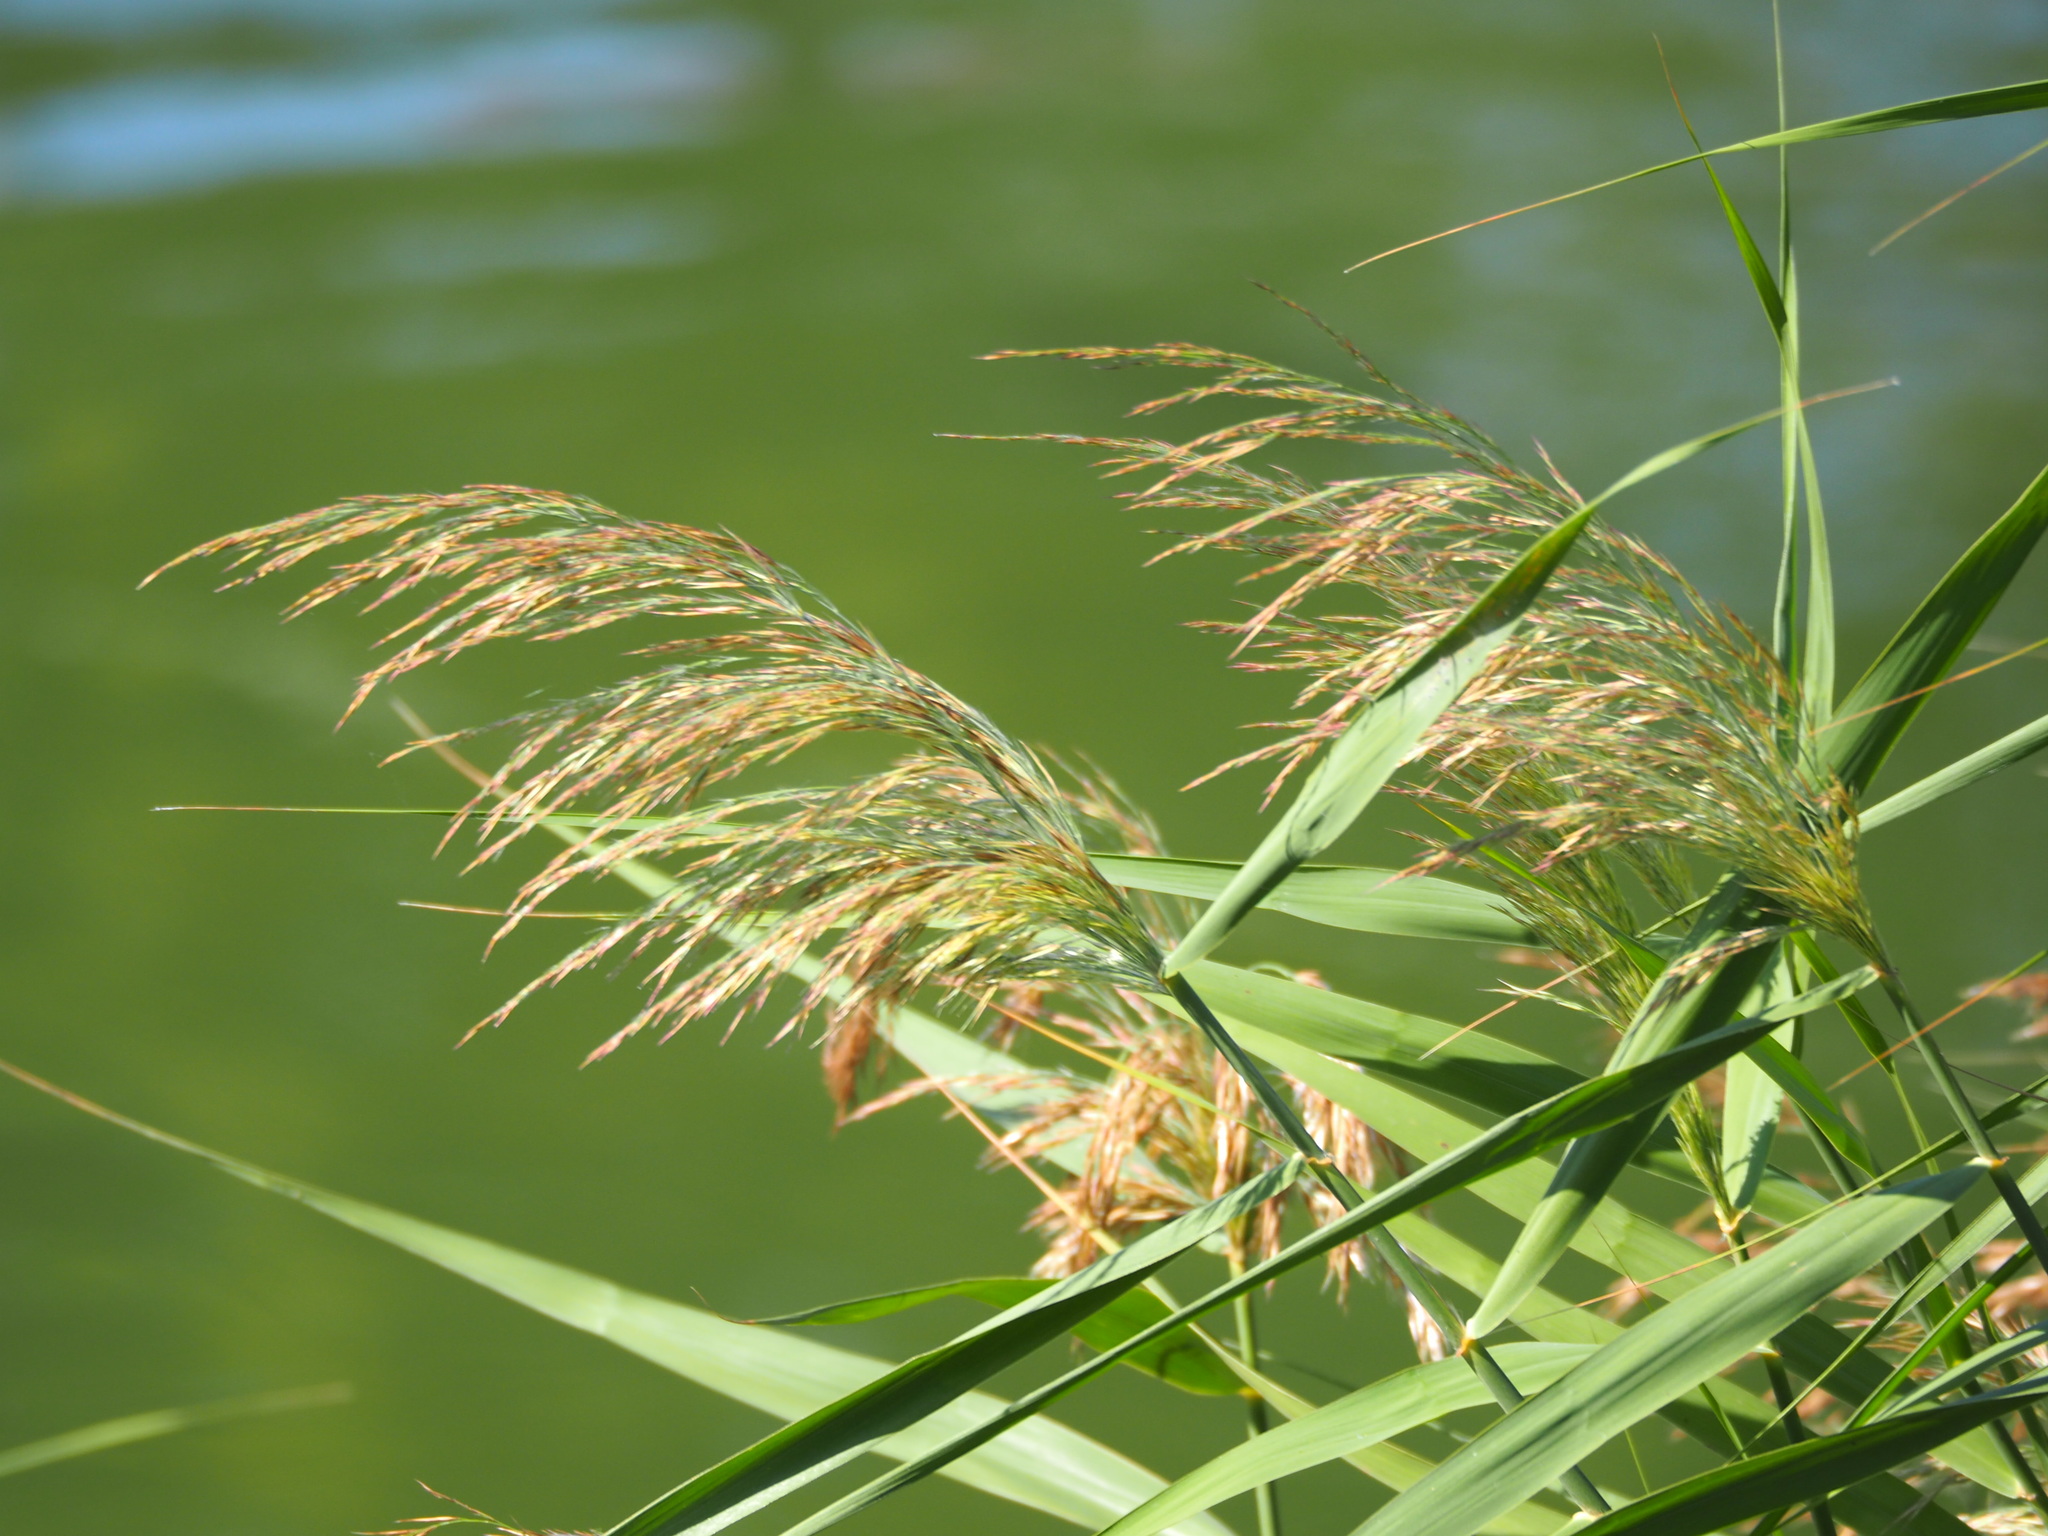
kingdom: Plantae
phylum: Tracheophyta
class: Liliopsida
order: Poales
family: Poaceae
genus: Phragmites
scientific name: Phragmites australis
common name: Common reed
